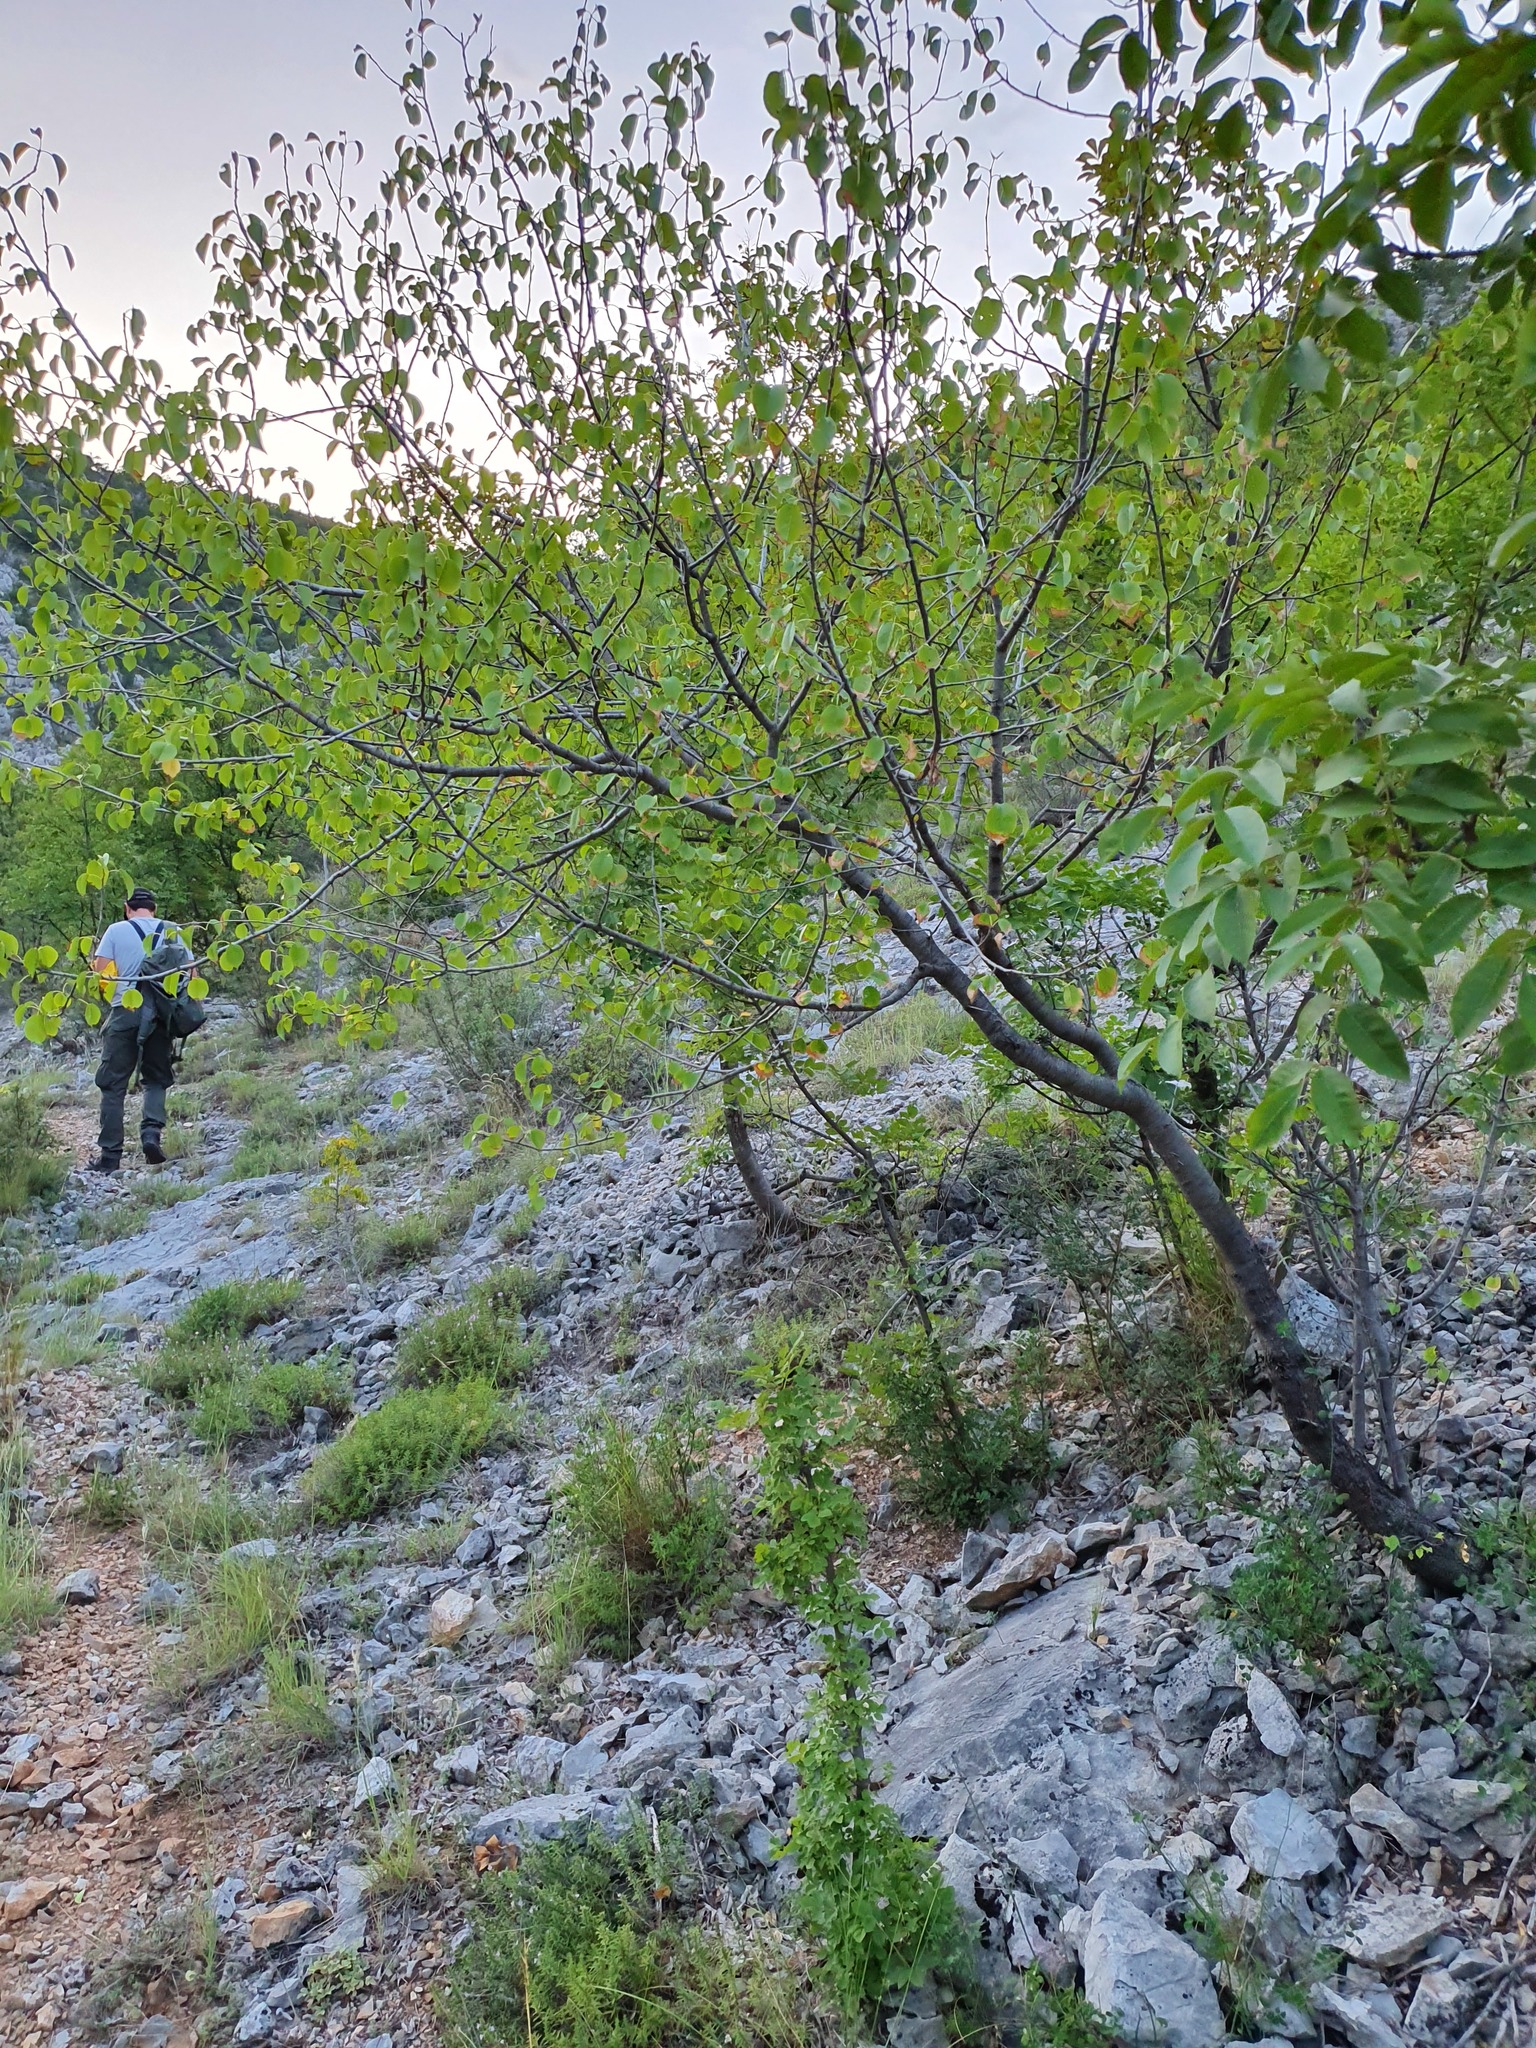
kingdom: Plantae
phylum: Tracheophyta
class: Magnoliopsida
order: Rosales
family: Rosaceae
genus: Prunus
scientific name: Prunus mahaleb
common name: Mahaleb cherry
